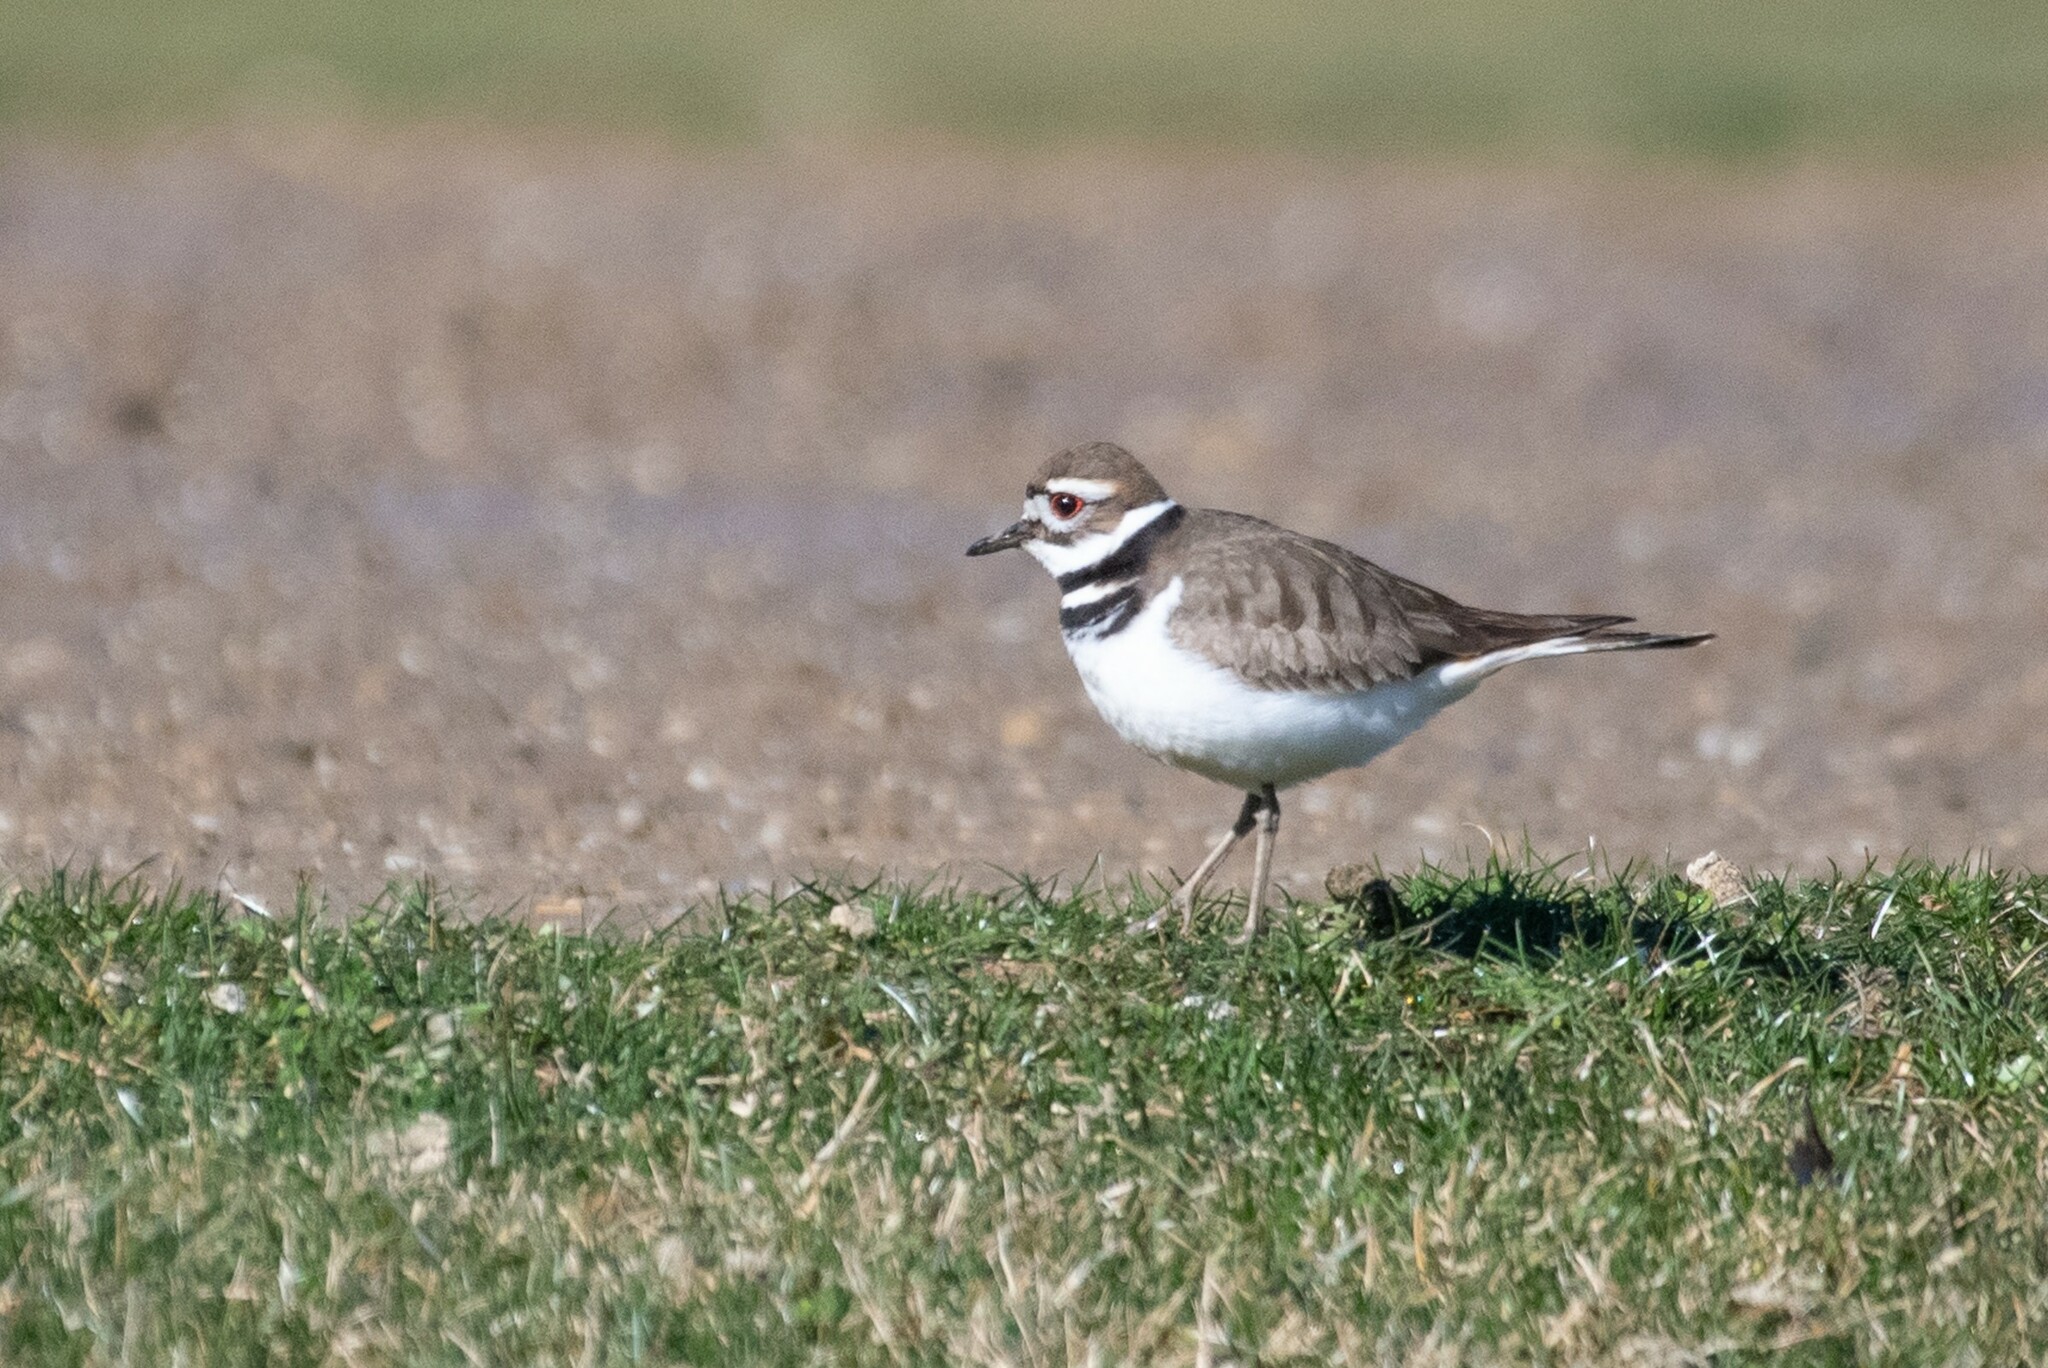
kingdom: Animalia
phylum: Chordata
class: Aves
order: Charadriiformes
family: Charadriidae
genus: Charadrius
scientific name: Charadrius vociferus
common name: Killdeer
